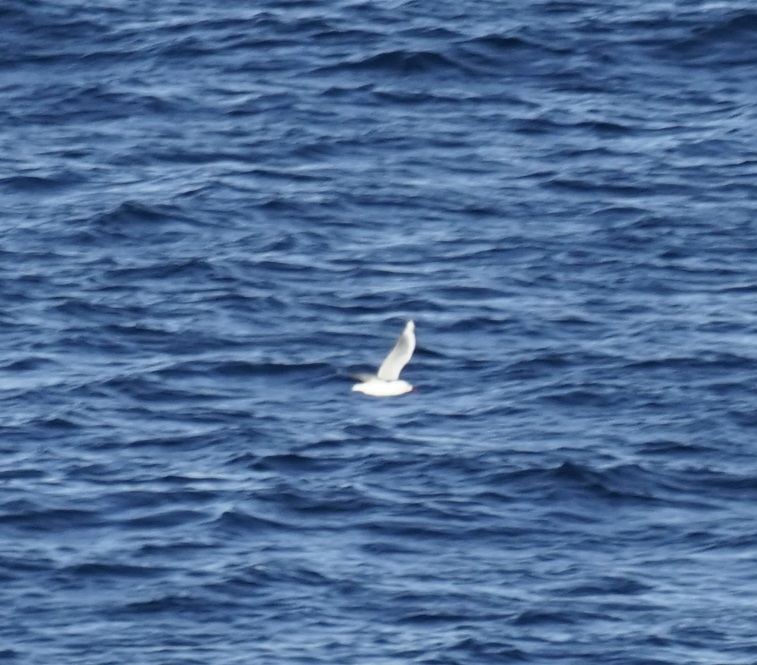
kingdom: Animalia
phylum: Chordata
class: Aves
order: Charadriiformes
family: Laridae
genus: Chroicocephalus
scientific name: Chroicocephalus novaehollandiae
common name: Silver gull
